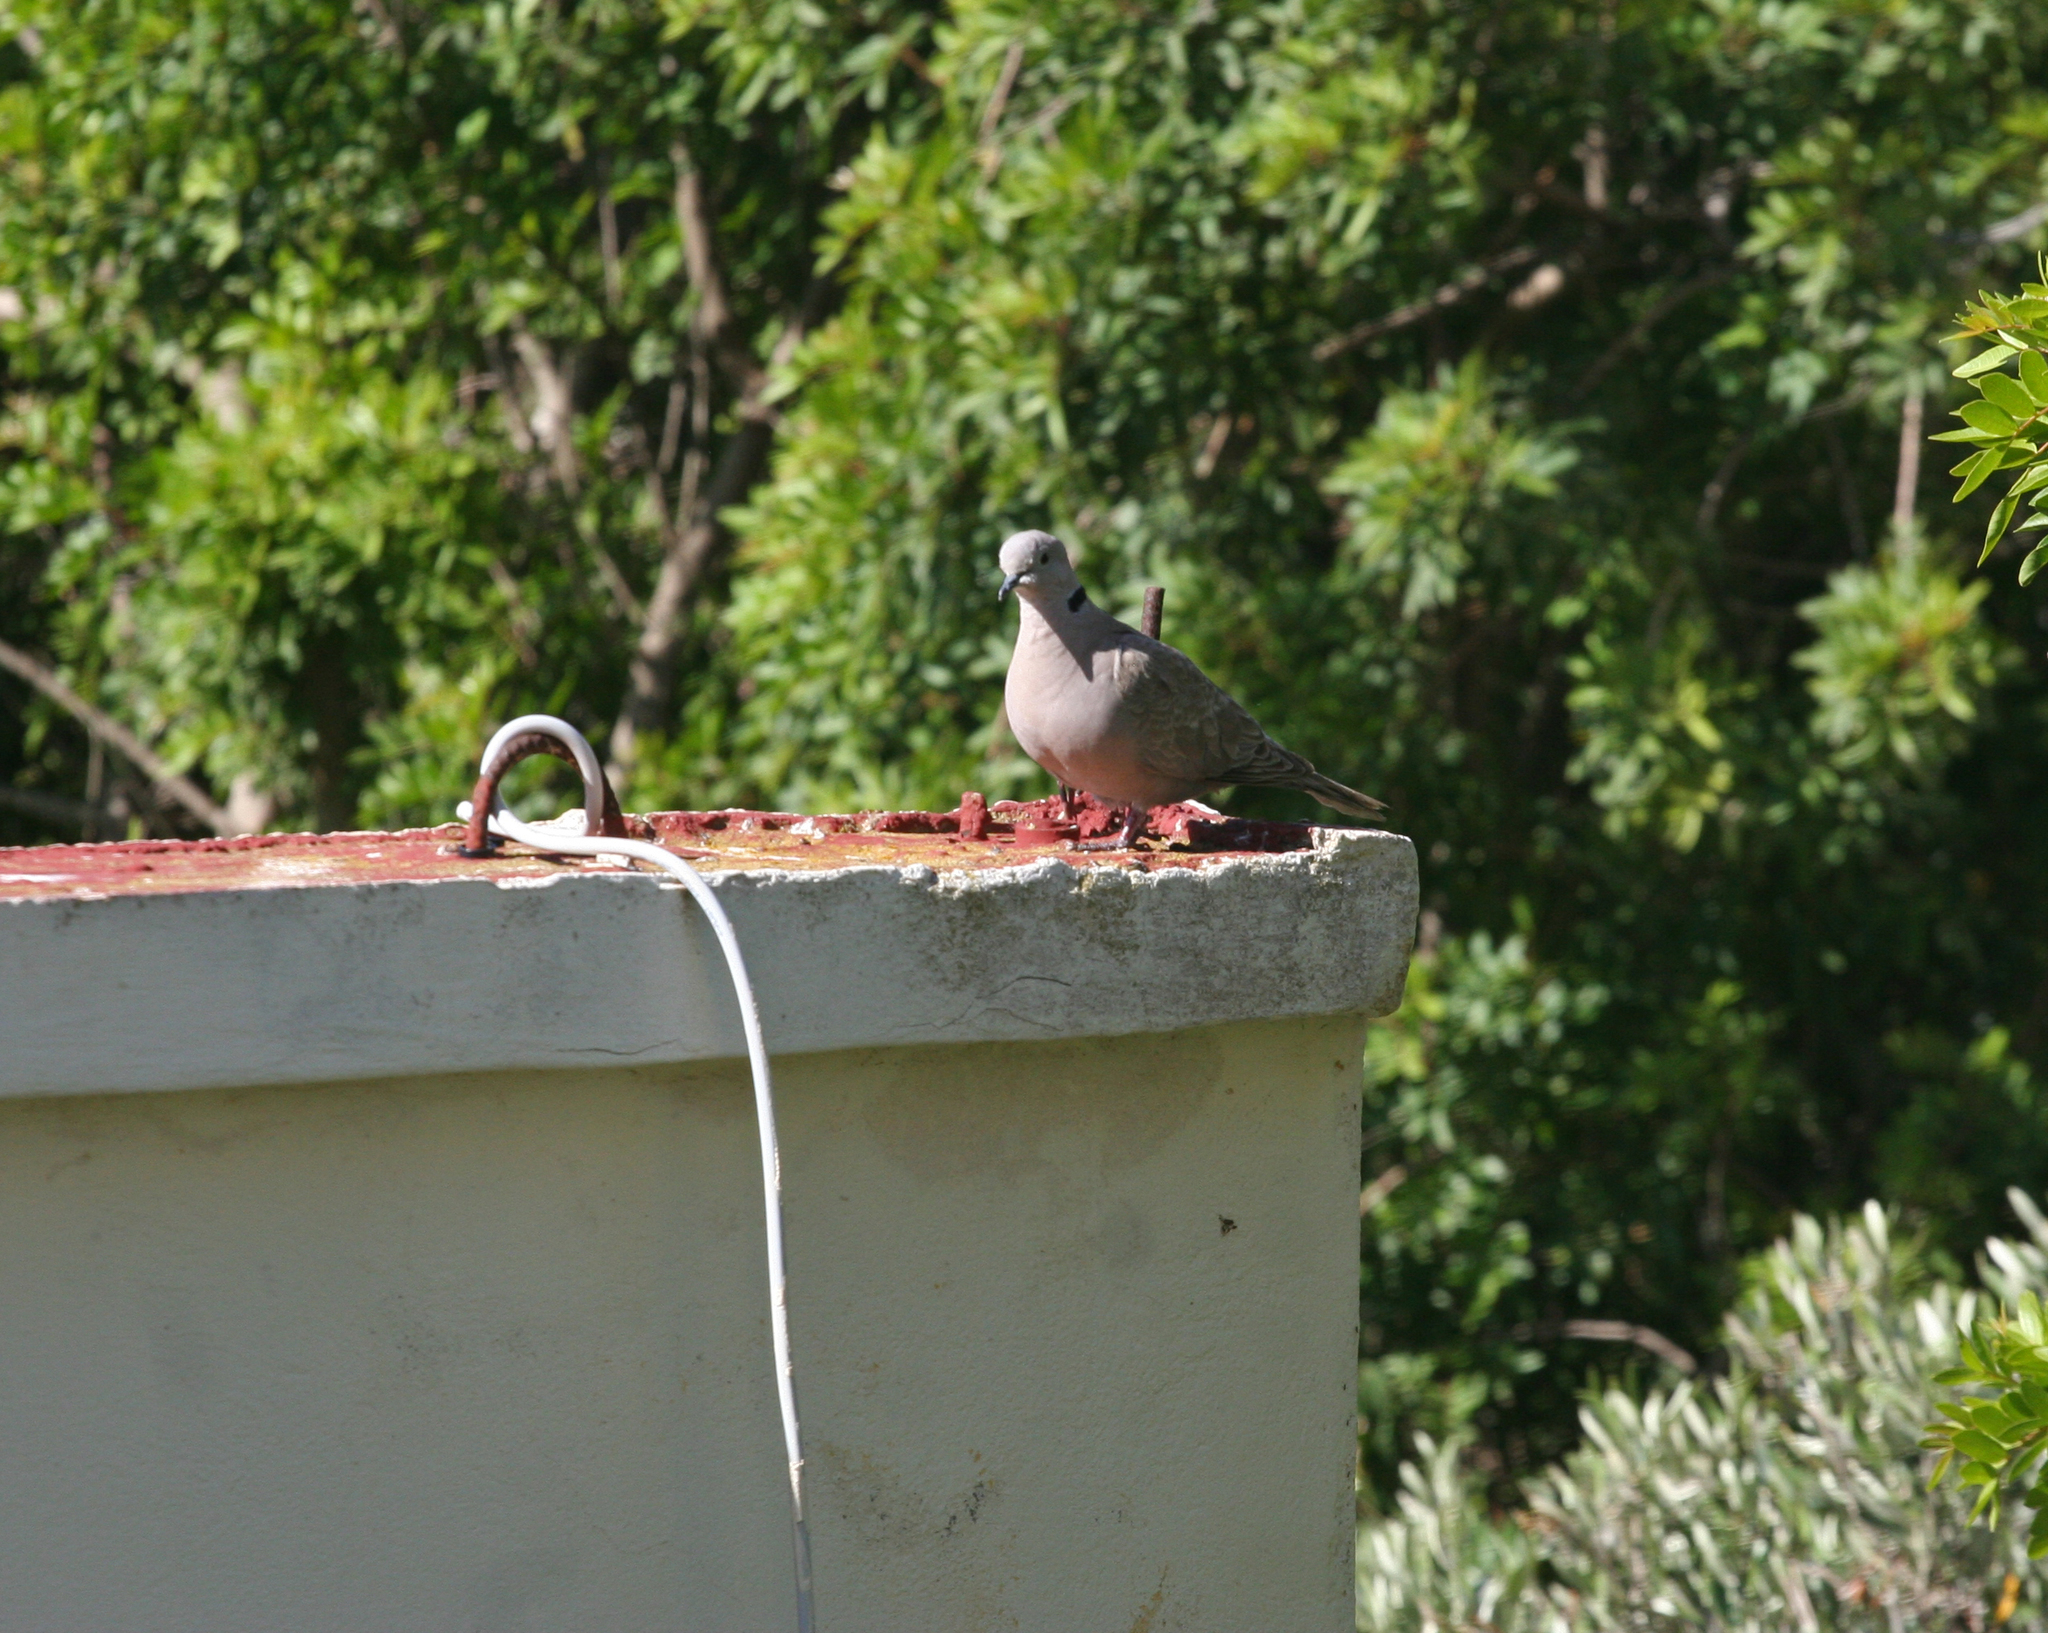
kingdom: Animalia
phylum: Chordata
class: Aves
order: Columbiformes
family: Columbidae
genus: Streptopelia
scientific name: Streptopelia decaocto
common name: Eurasian collared dove
